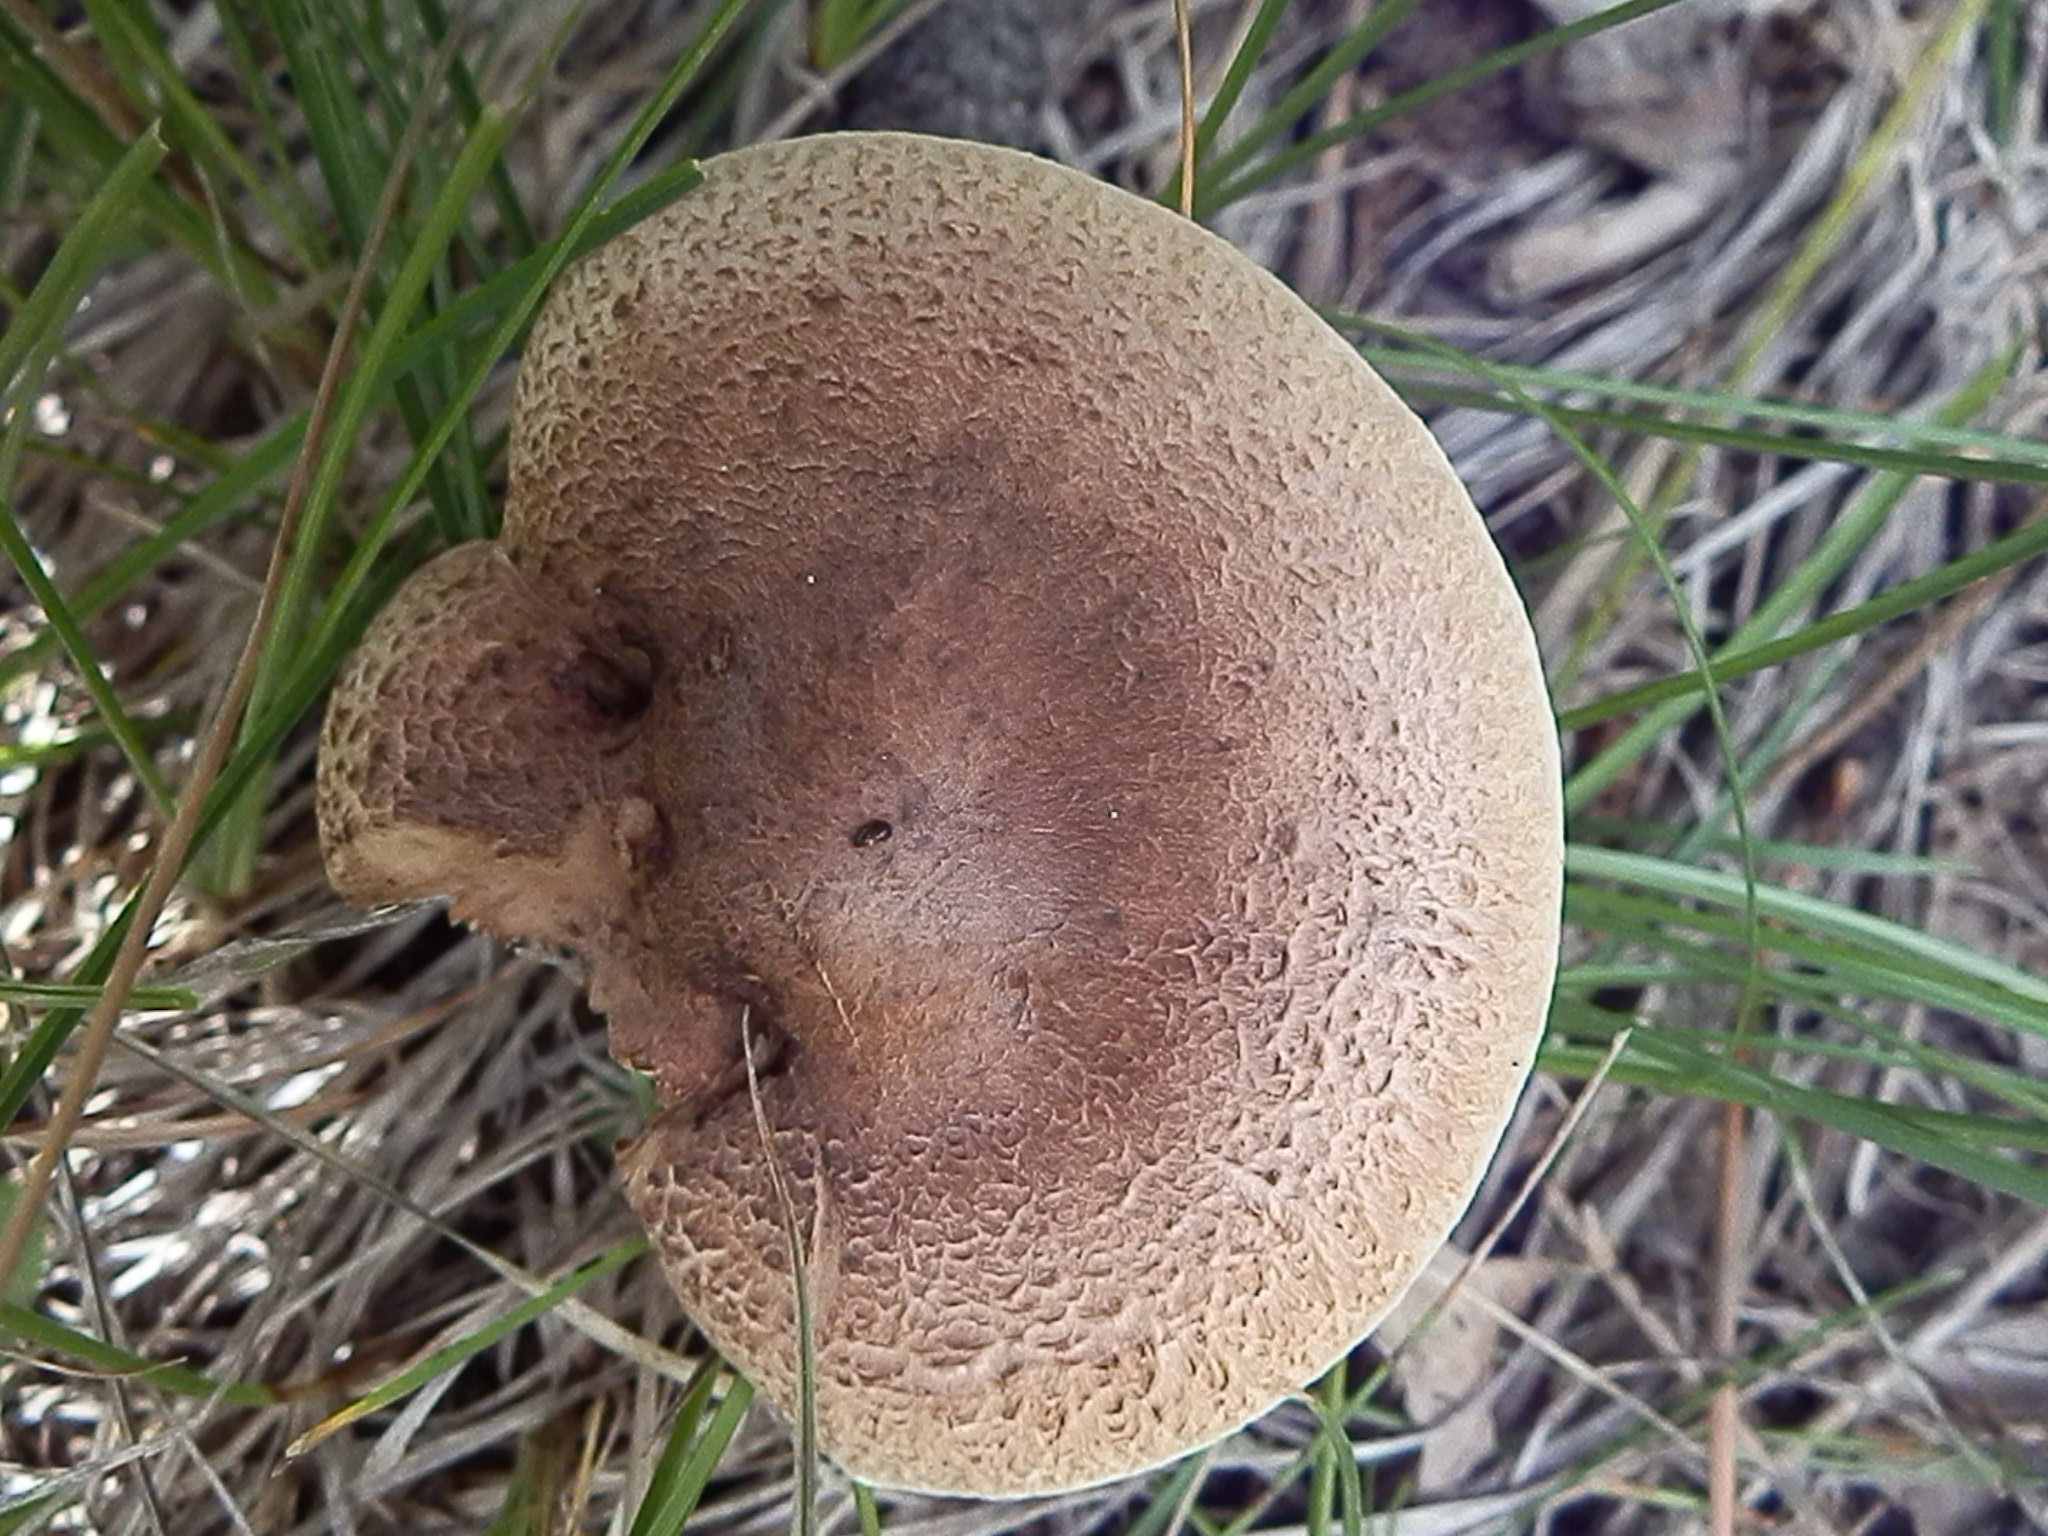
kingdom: Fungi
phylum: Basidiomycota
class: Agaricomycetes
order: Agaricales
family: Tricholomataceae
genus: Tricholoma
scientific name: Tricholoma imbricatum
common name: Matt knight
